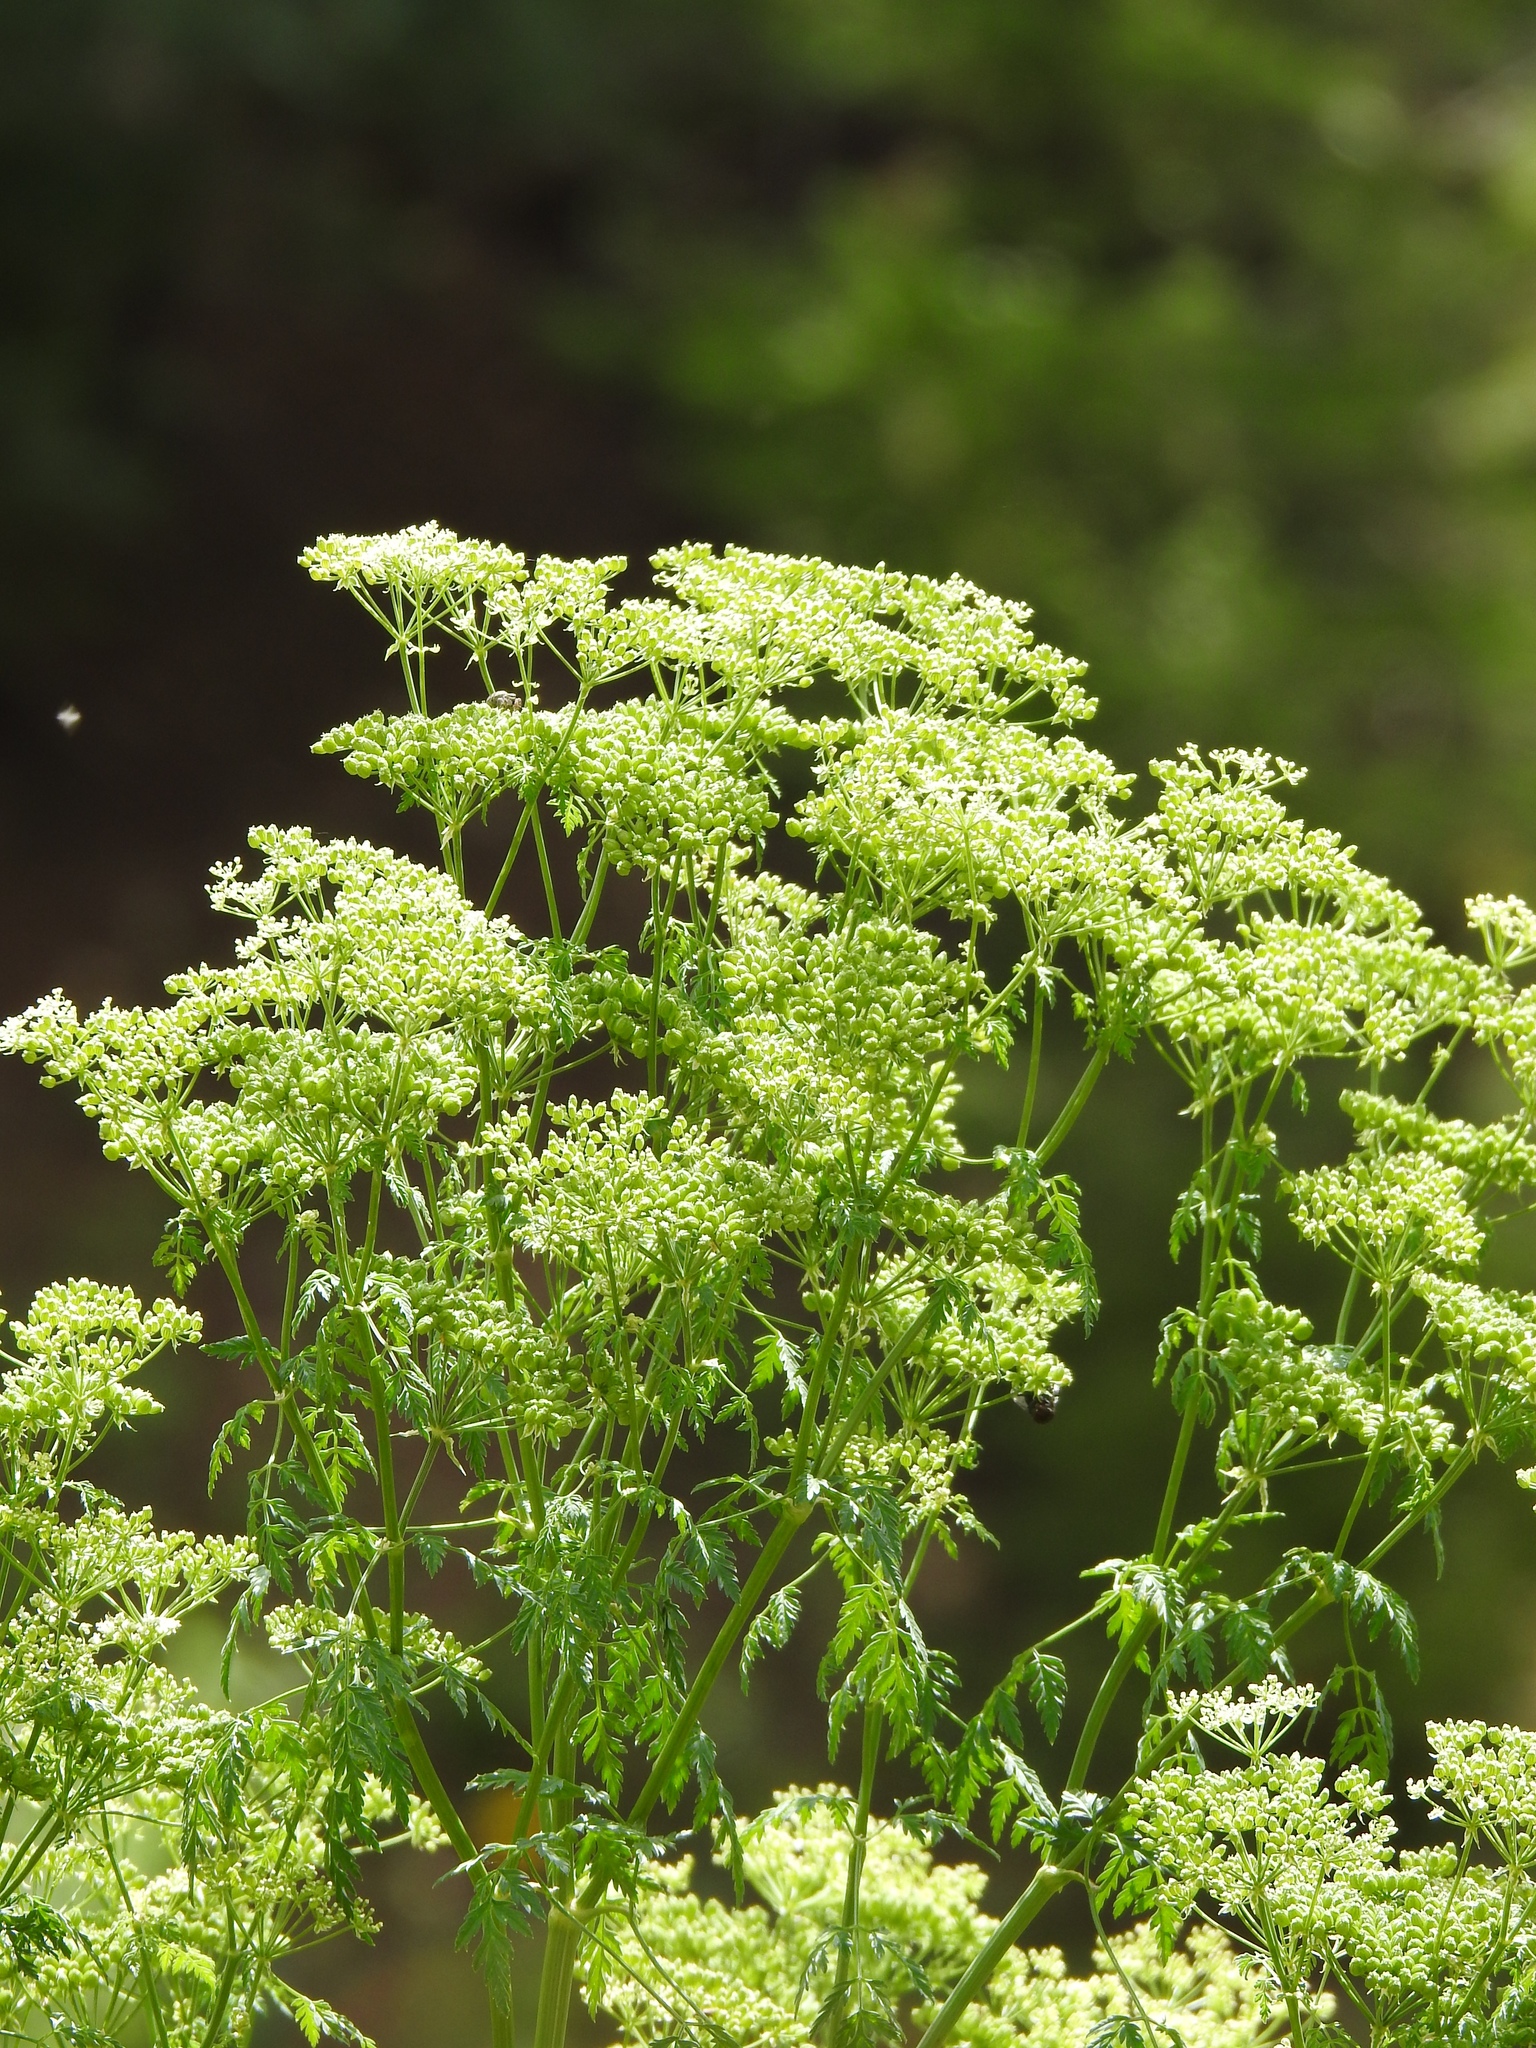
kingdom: Plantae
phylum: Tracheophyta
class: Magnoliopsida
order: Apiales
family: Apiaceae
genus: Conium
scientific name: Conium maculatum
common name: Hemlock
